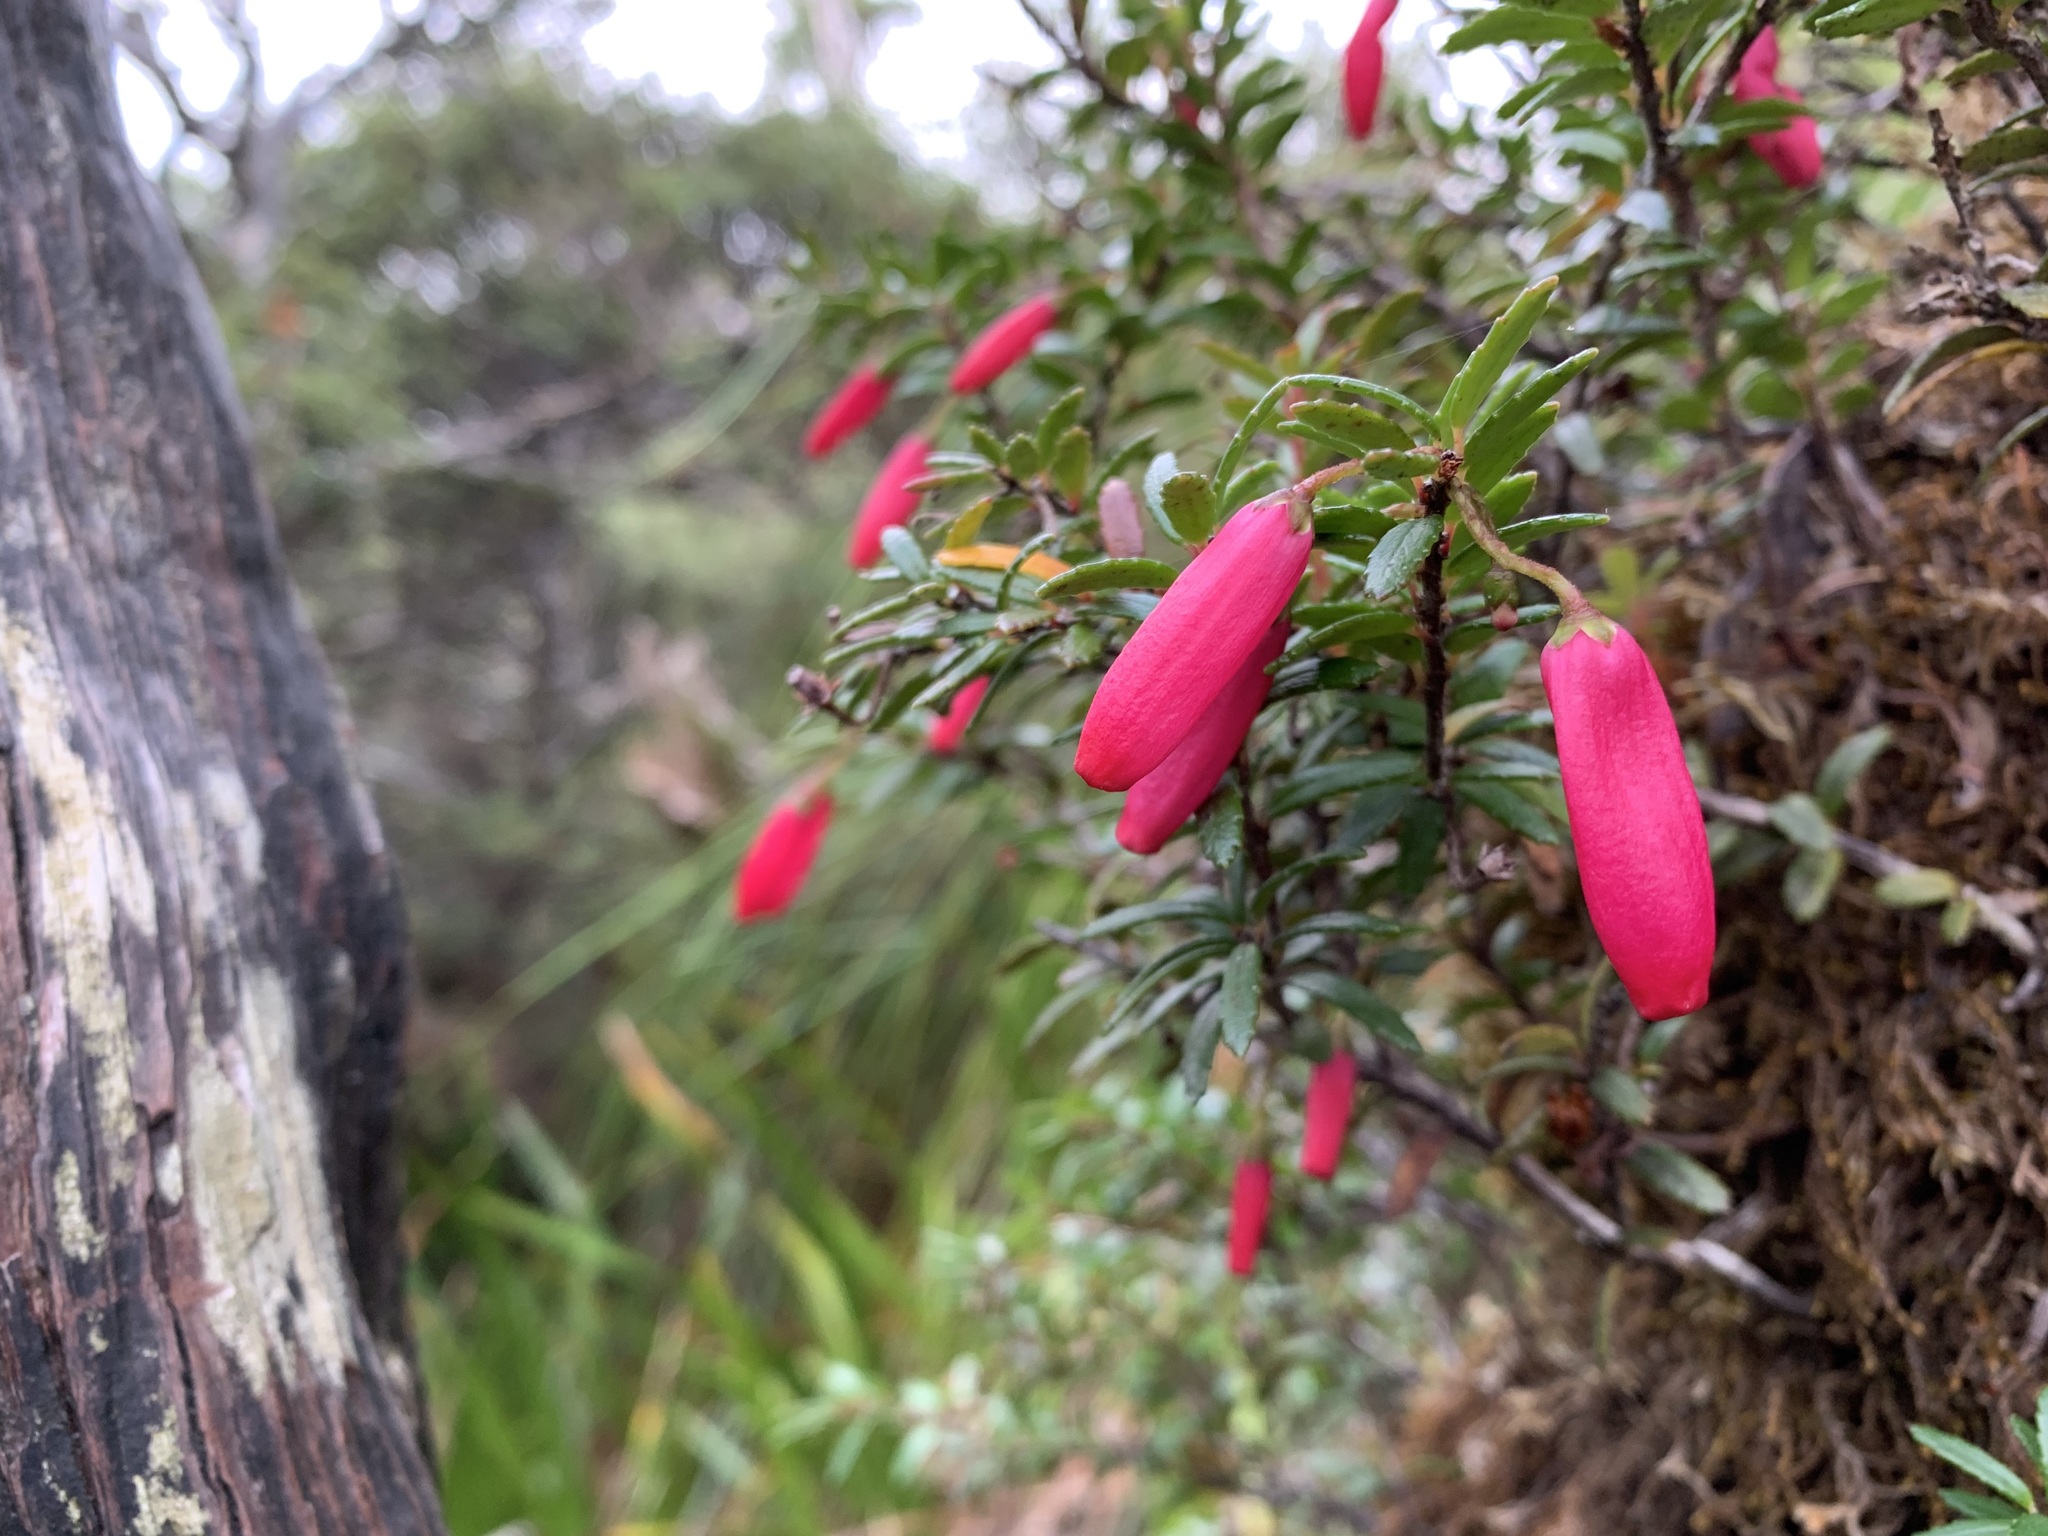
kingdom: Plantae
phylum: Tracheophyta
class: Magnoliopsida
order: Ericales
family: Ericaceae
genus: Prionotes
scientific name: Prionotes cerinthoides
